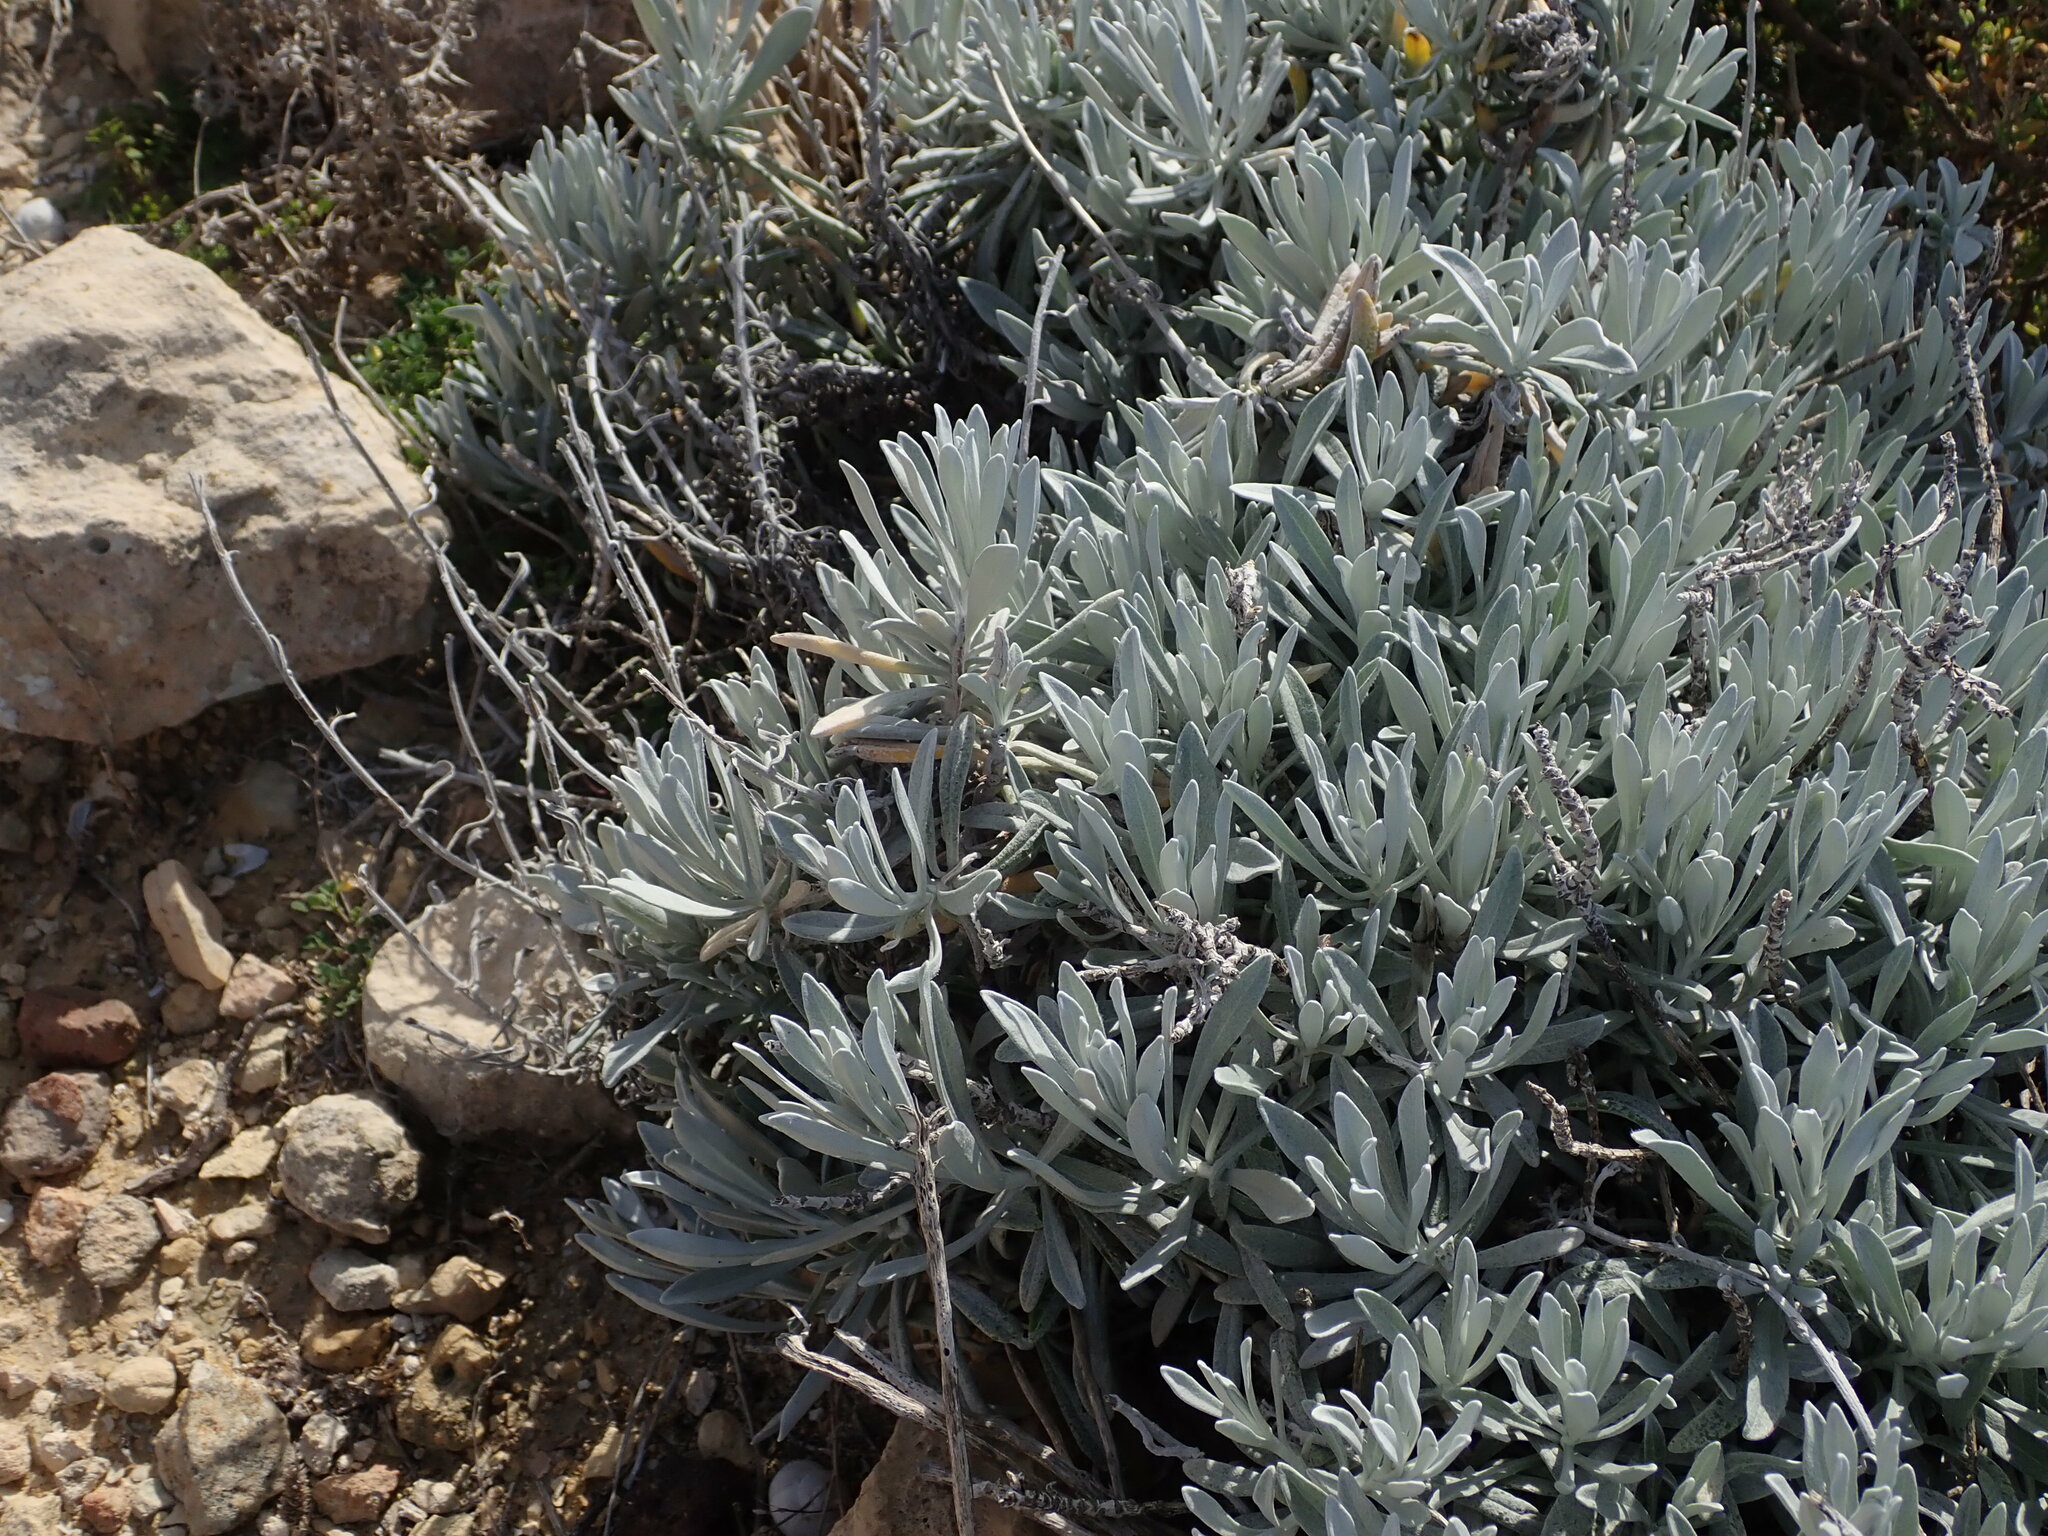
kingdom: Plantae
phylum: Tracheophyta
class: Magnoliopsida
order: Asterales
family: Asteraceae
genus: Helichrysum
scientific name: Helichrysum melitense
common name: Maltese everlasting
